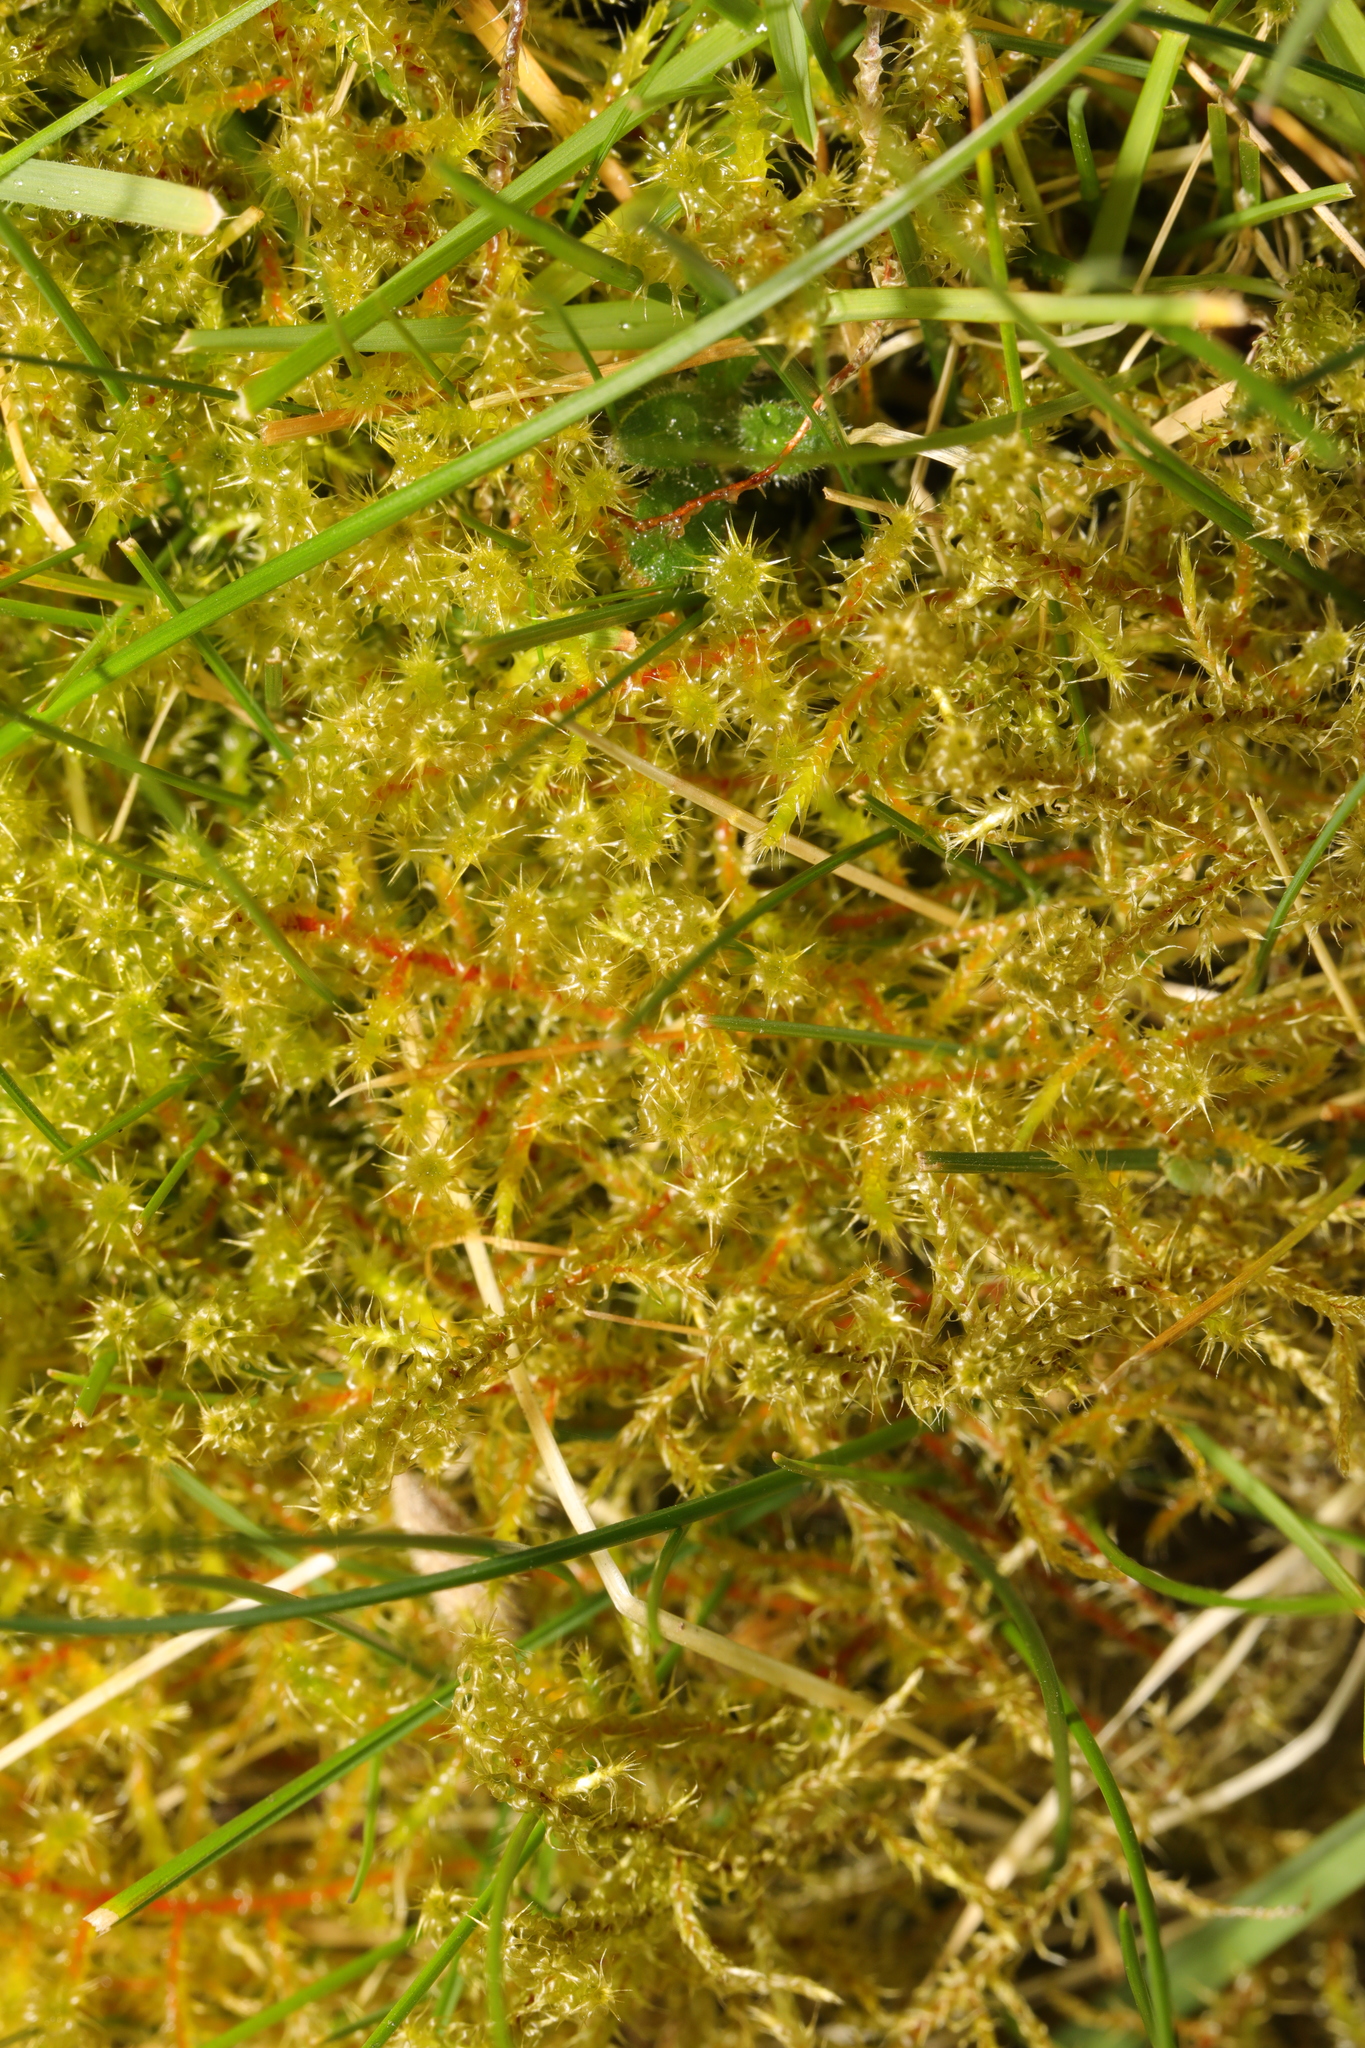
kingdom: Plantae
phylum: Bryophyta
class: Bryopsida
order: Hypnales
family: Hylocomiaceae
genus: Rhytidiadelphus
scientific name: Rhytidiadelphus squarrosus
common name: Springy turf-moss
